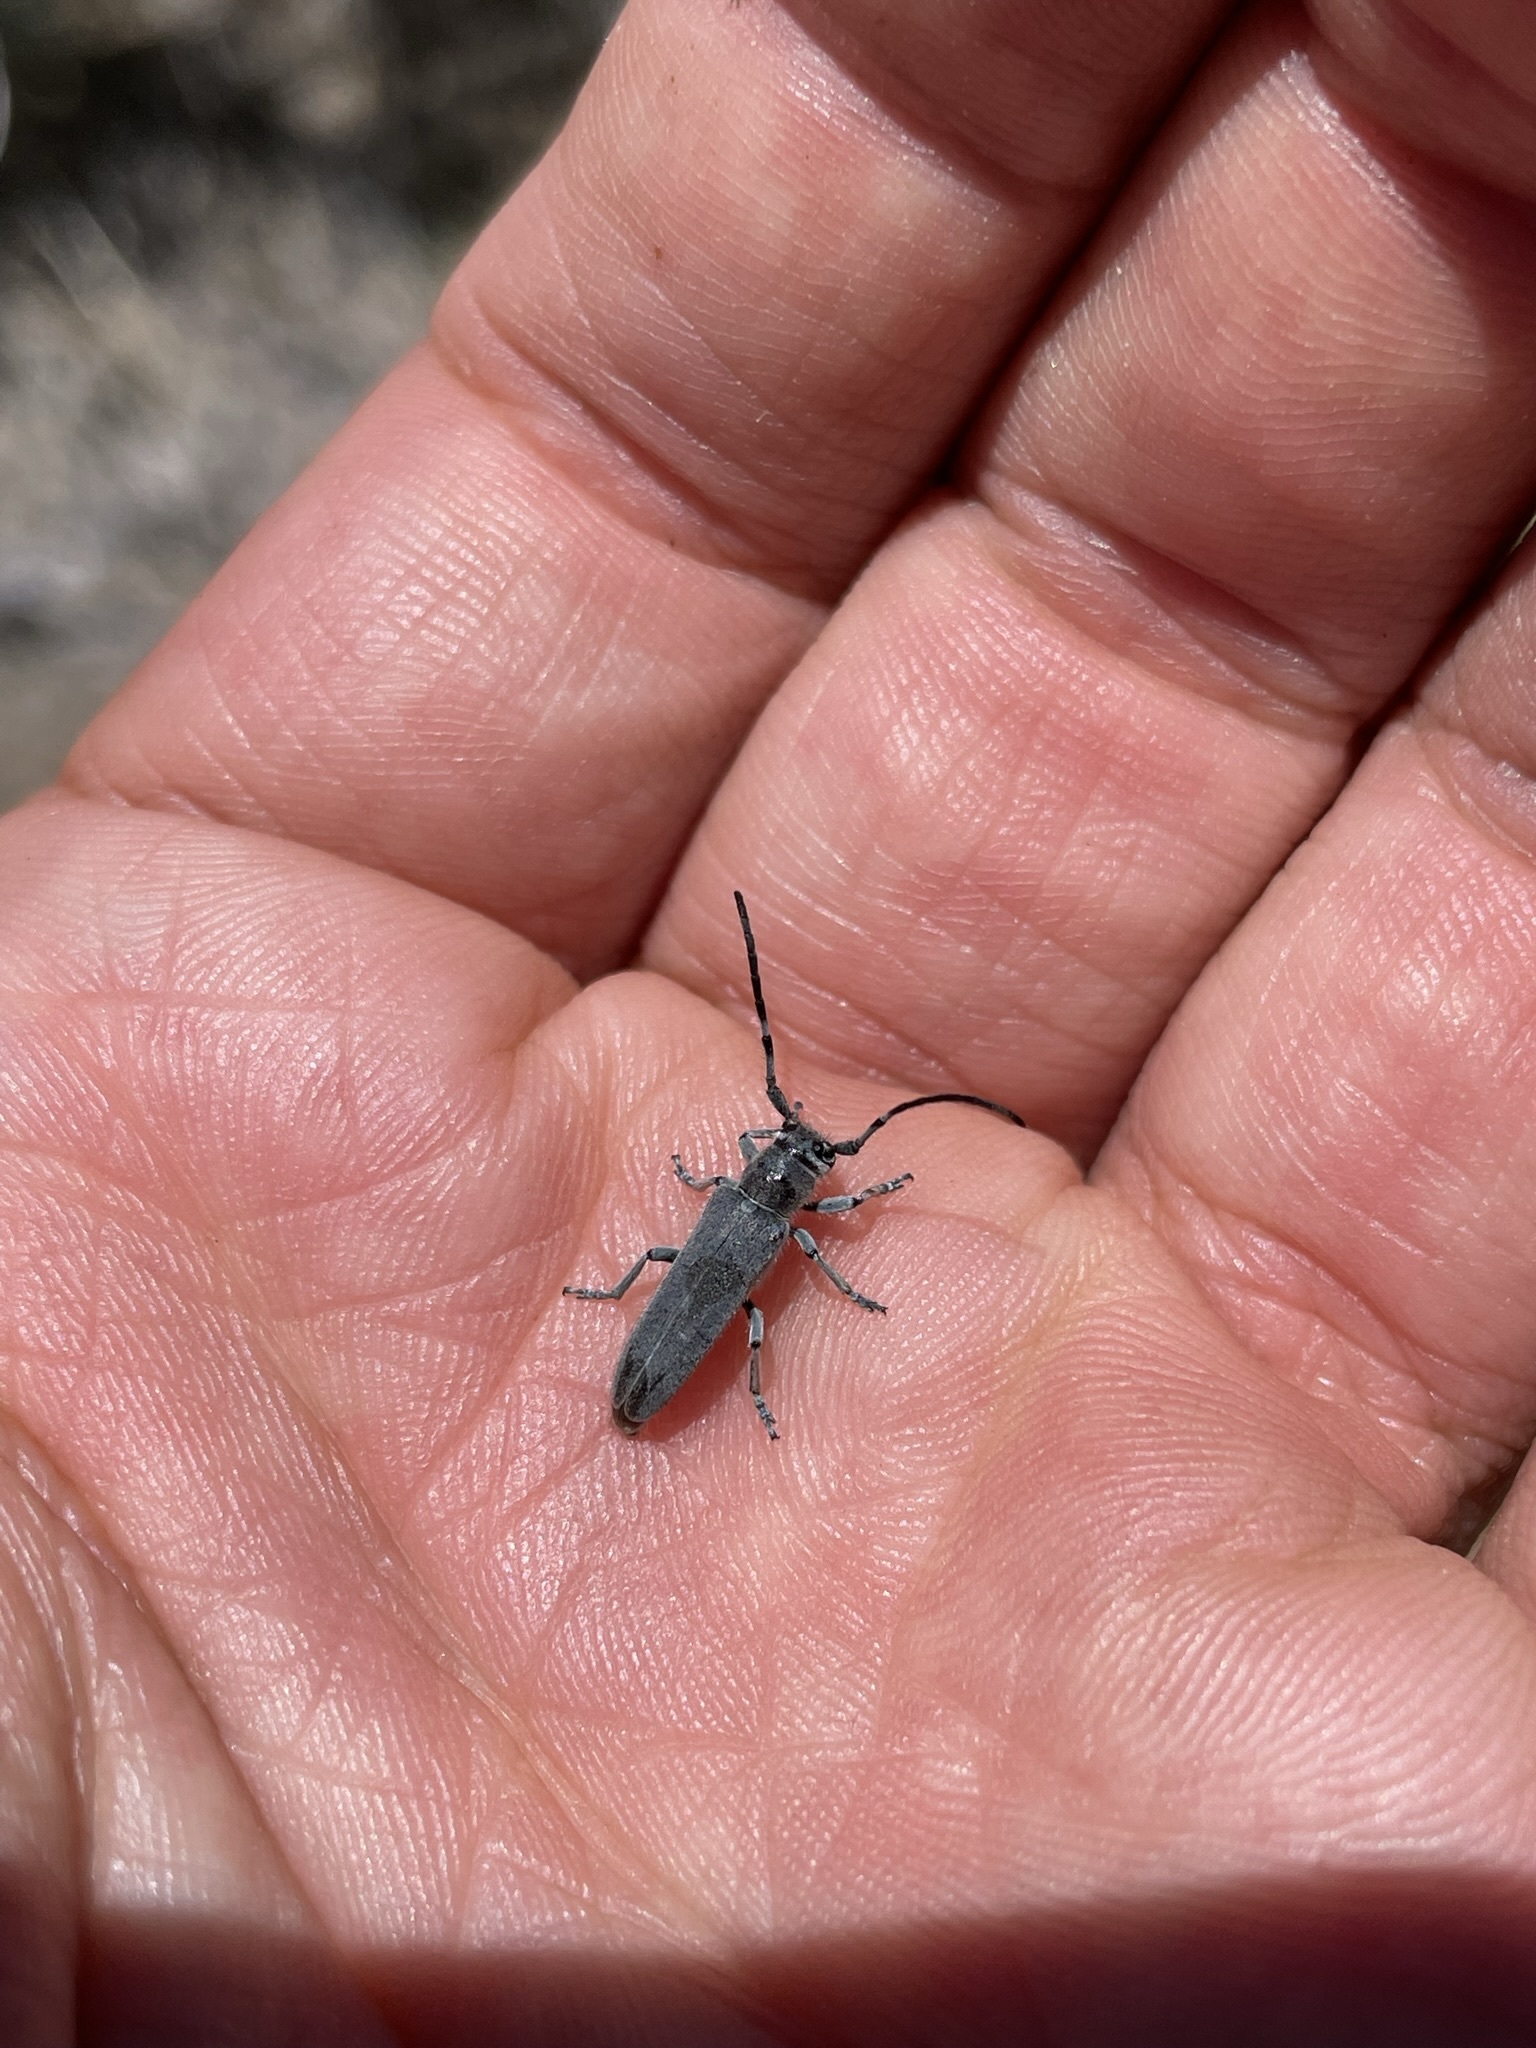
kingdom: Animalia
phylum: Arthropoda
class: Insecta
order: Coleoptera
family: Cerambycidae
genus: Mecas
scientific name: Mecas bicallosa
